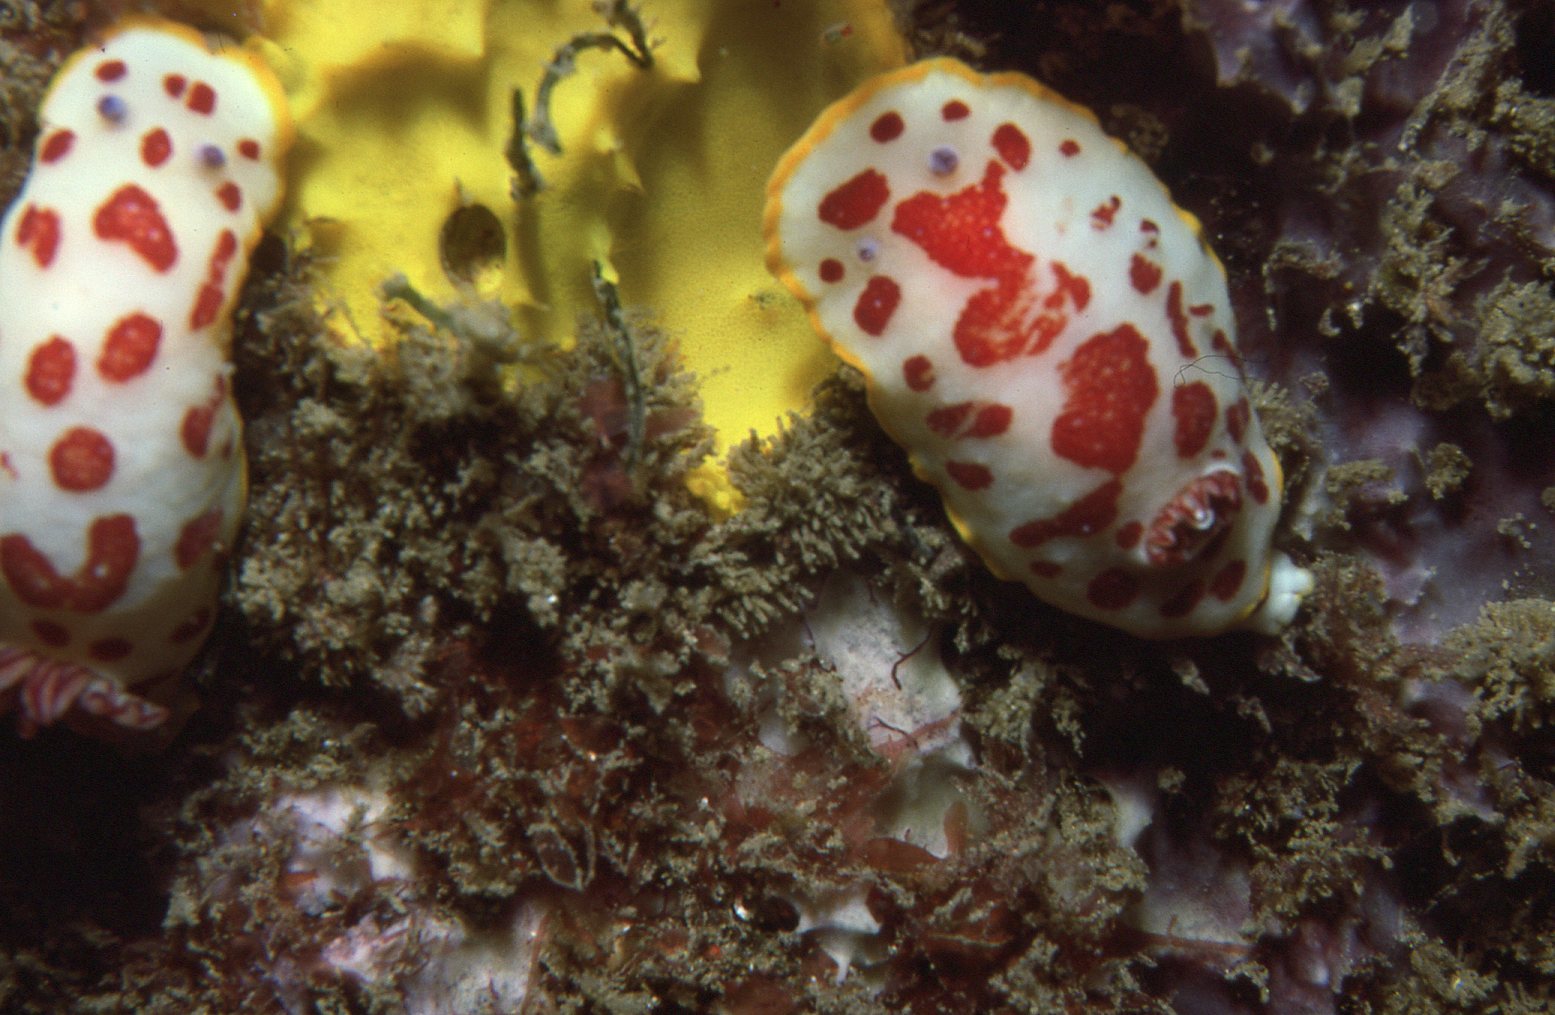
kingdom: Animalia
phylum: Mollusca
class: Gastropoda
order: Nudibranchia
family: Chromodorididae
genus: Goniobranchus
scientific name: Goniobranchus splendidus
